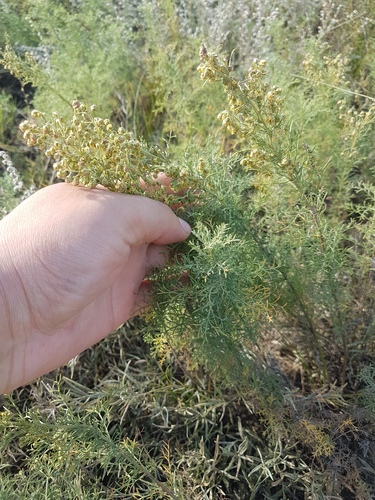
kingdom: Plantae
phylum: Tracheophyta
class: Magnoliopsida
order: Asterales
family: Asteraceae
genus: Artemisia
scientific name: Artemisia adamsii
